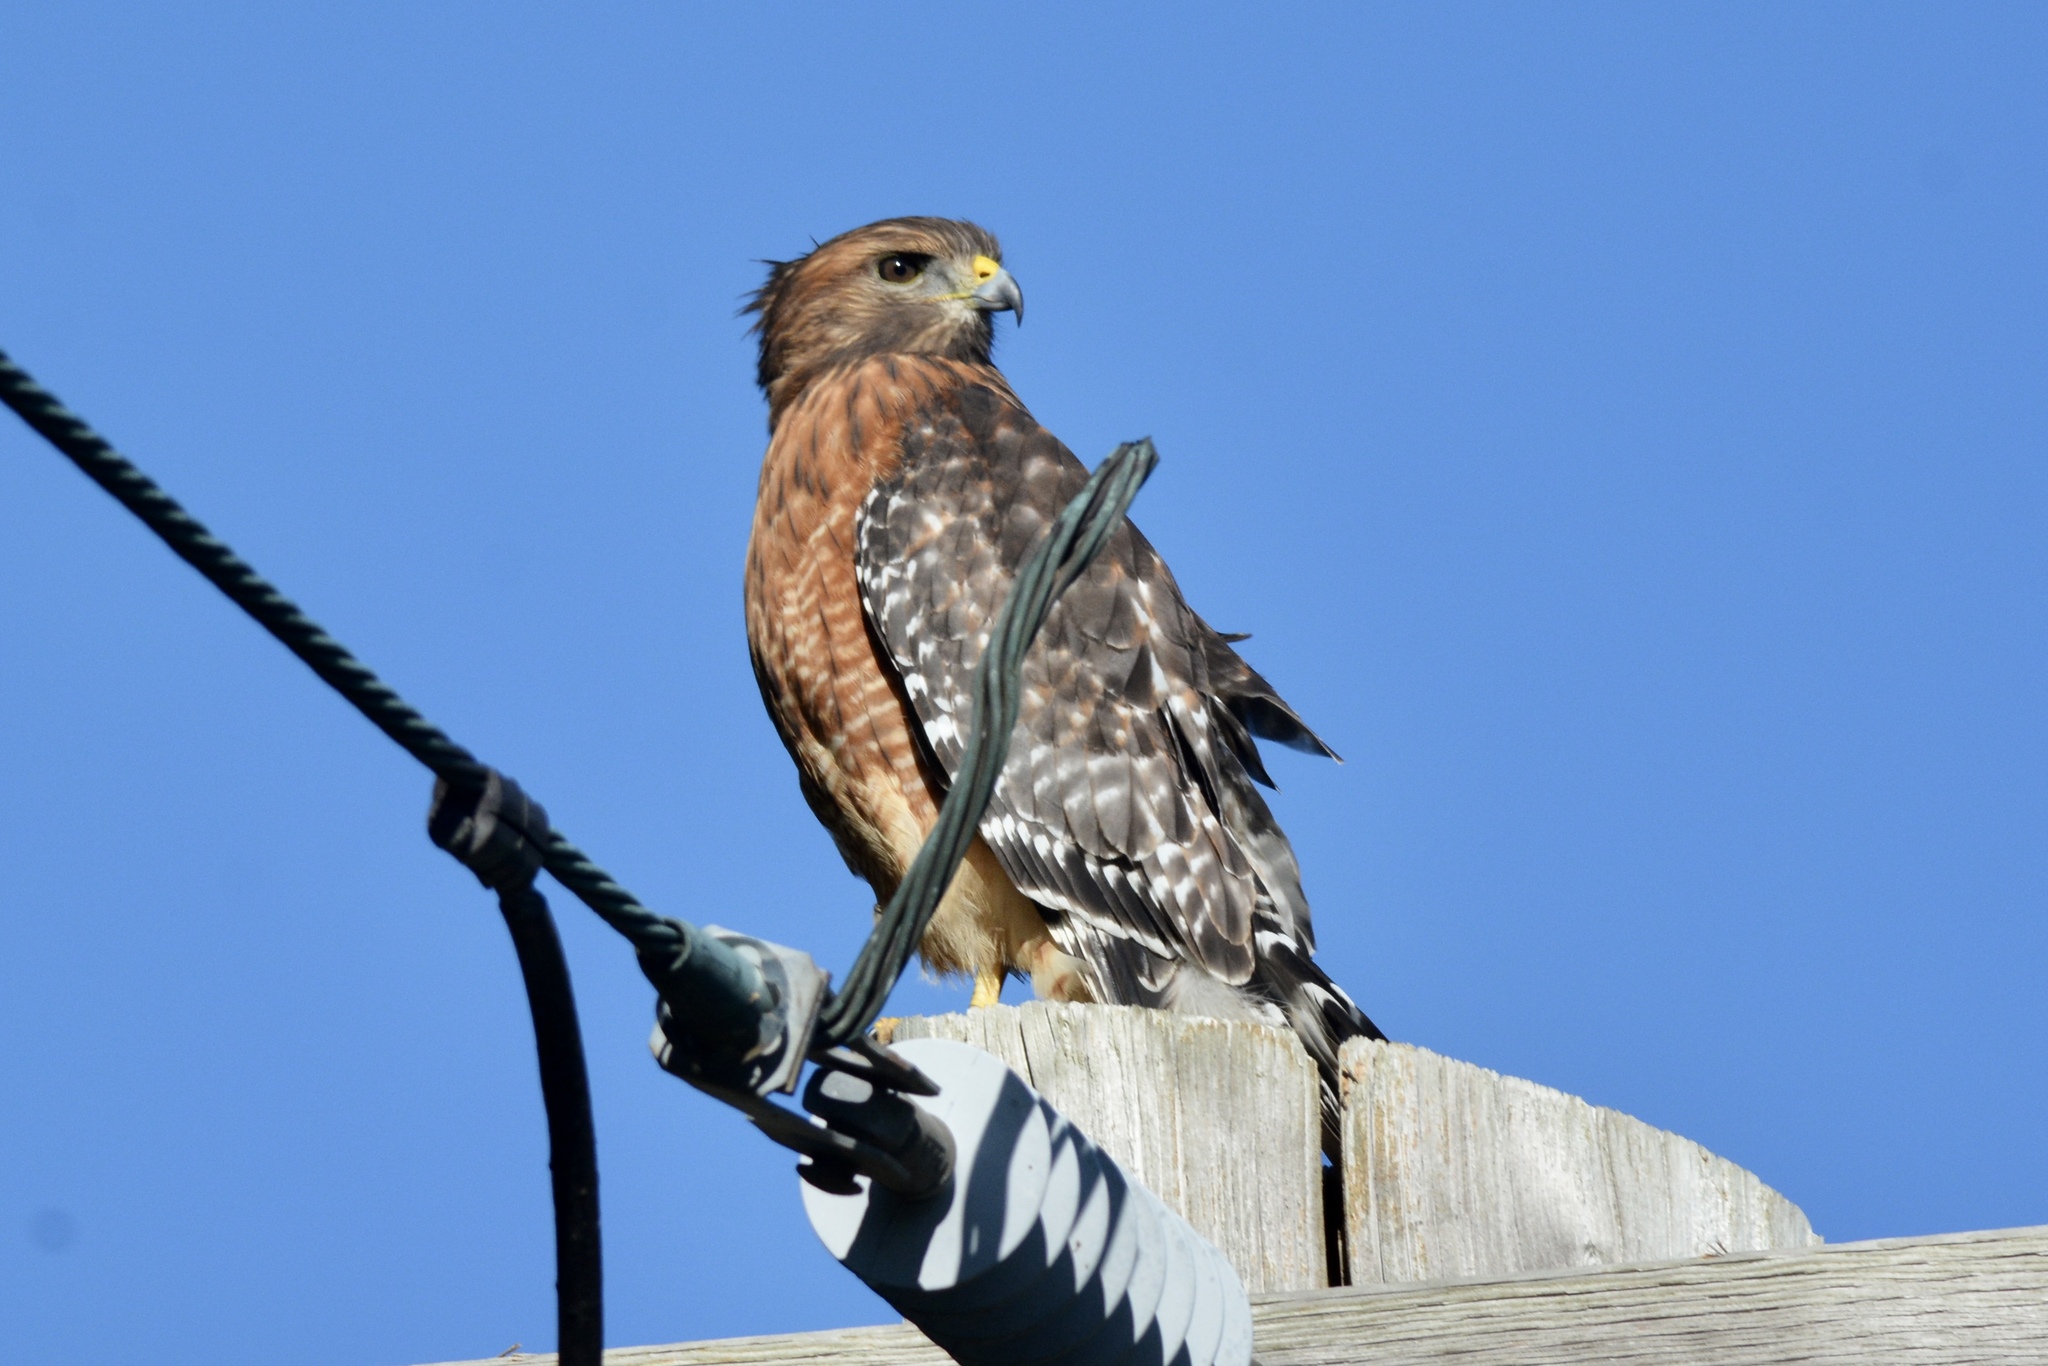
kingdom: Animalia
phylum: Chordata
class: Aves
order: Accipitriformes
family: Accipitridae
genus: Buteo
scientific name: Buteo lineatus
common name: Red-shouldered hawk
